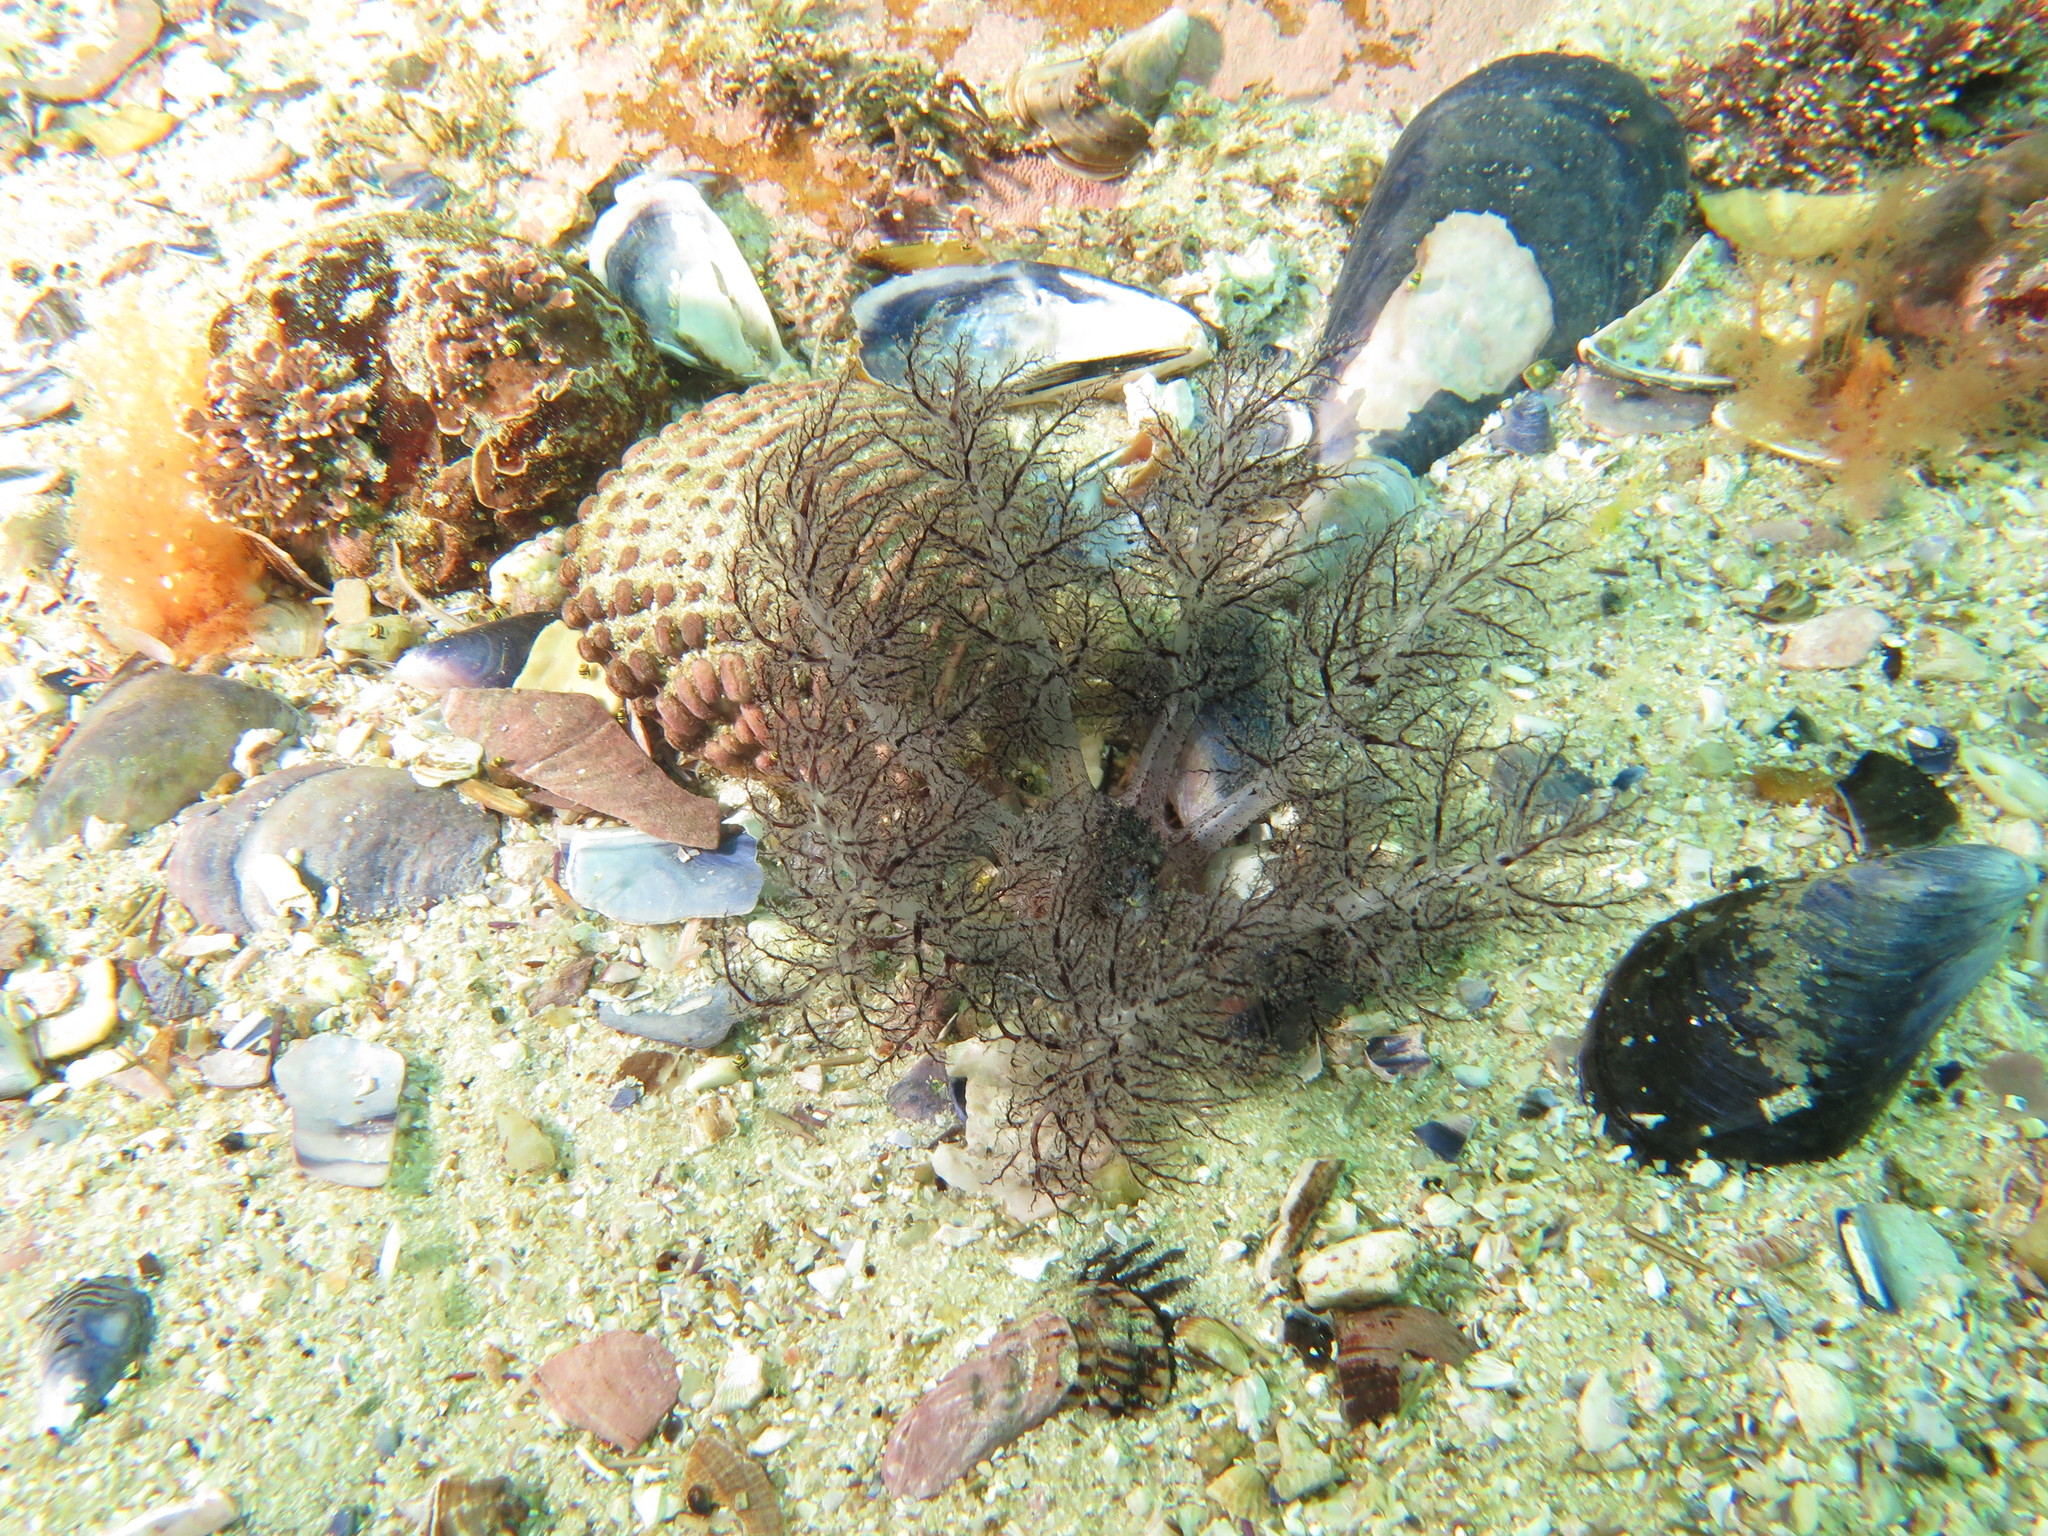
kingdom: Animalia
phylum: Echinodermata
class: Holothuroidea
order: Dendrochirotida
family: Cucumariidae
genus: Roweia
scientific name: Roweia frauenfeldi
